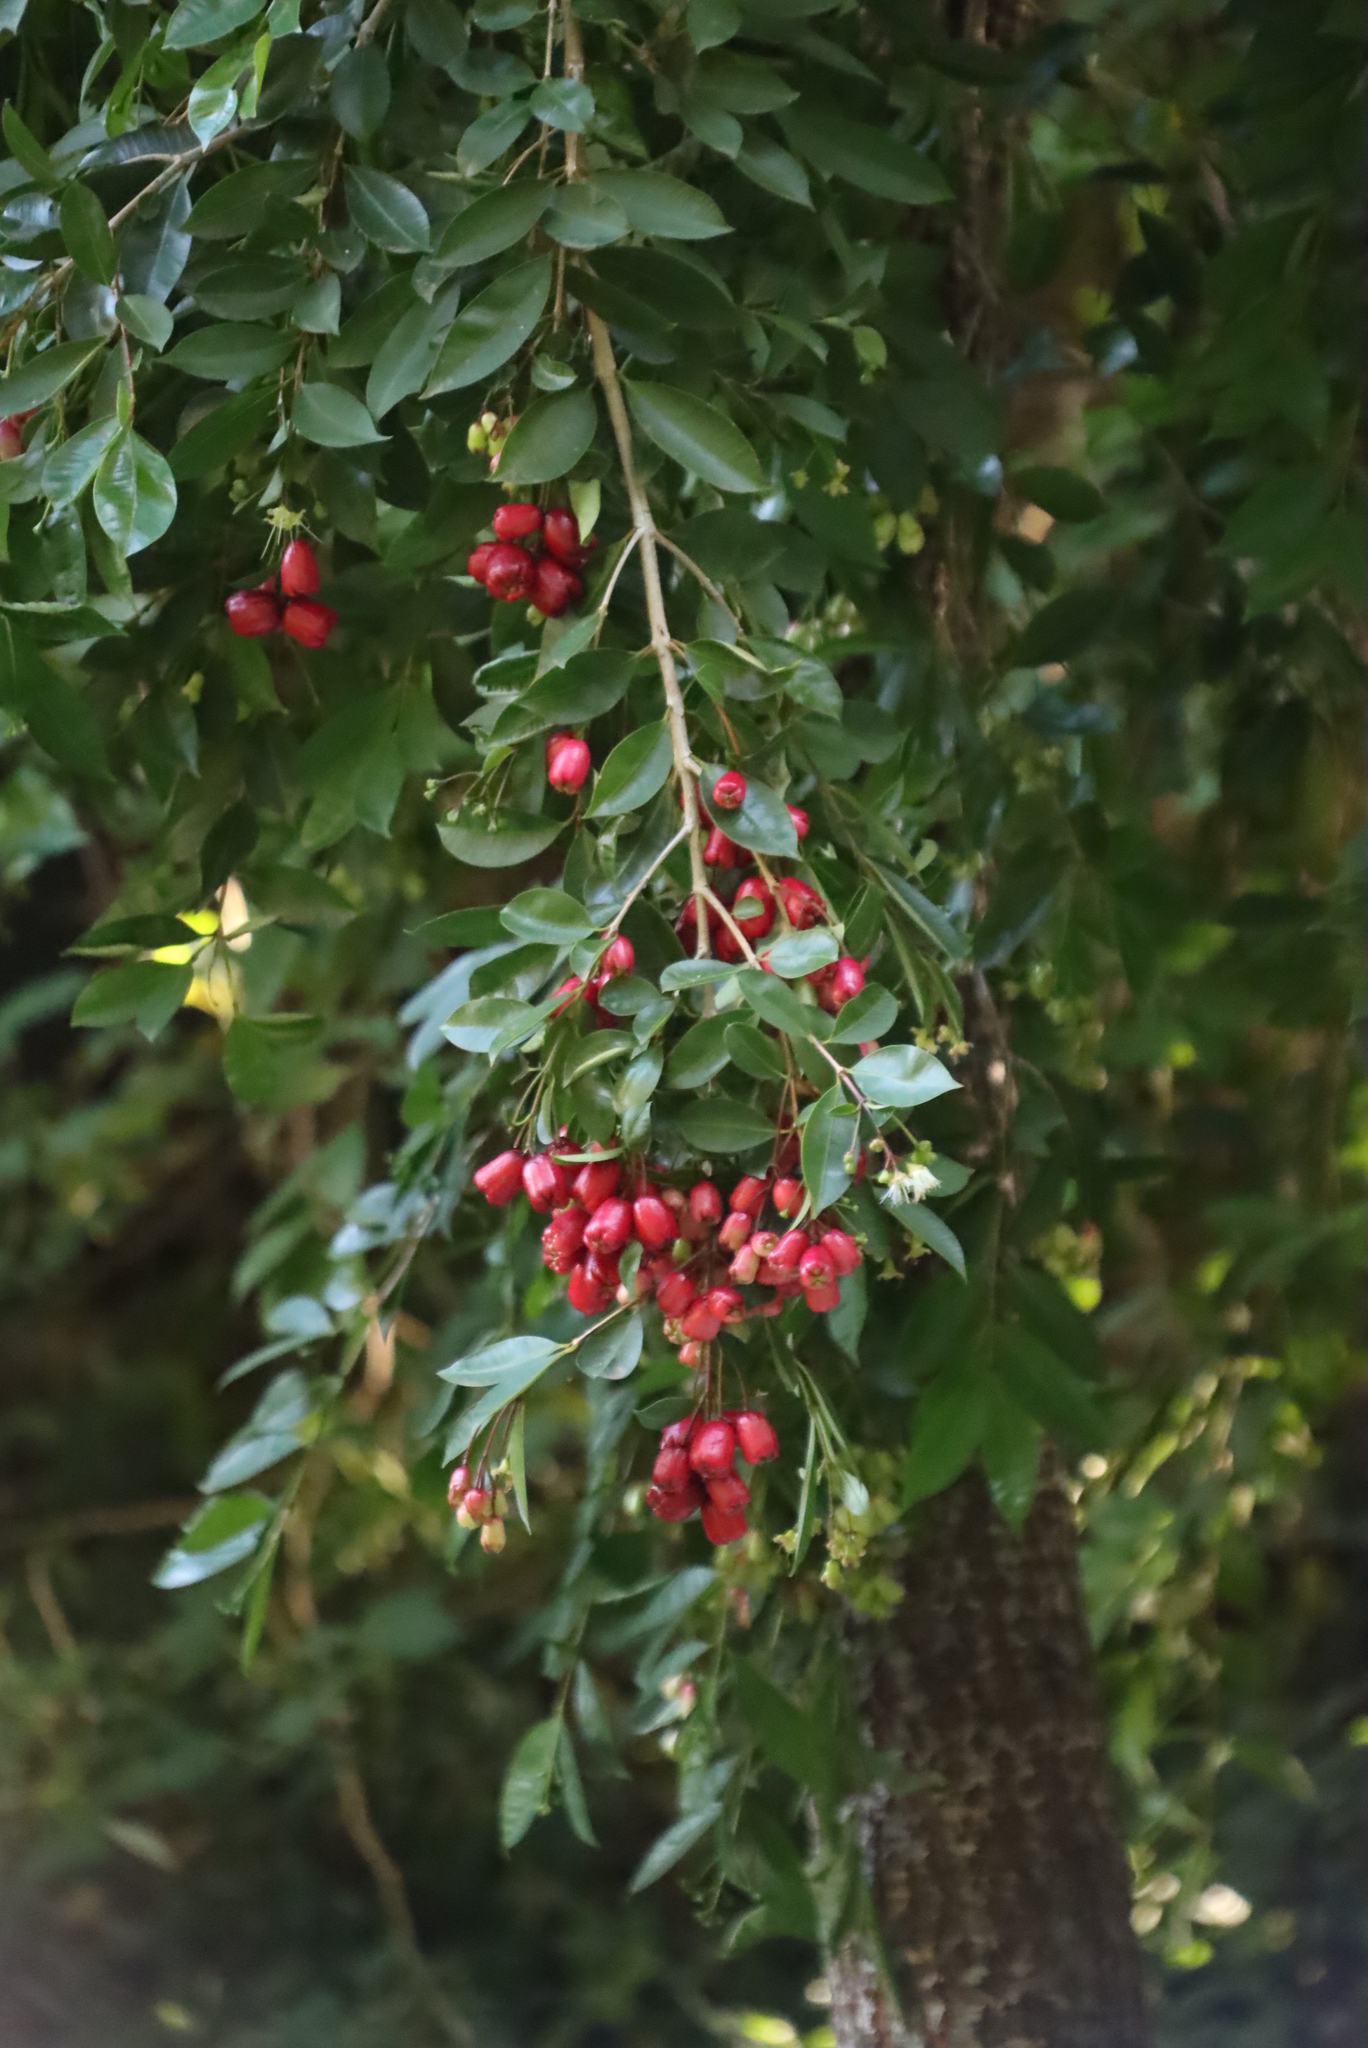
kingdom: Plantae
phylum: Tracheophyta
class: Magnoliopsida
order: Myrtales
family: Myrtaceae
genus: Syzygium
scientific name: Syzygium australe
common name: Australian brush-cherry
